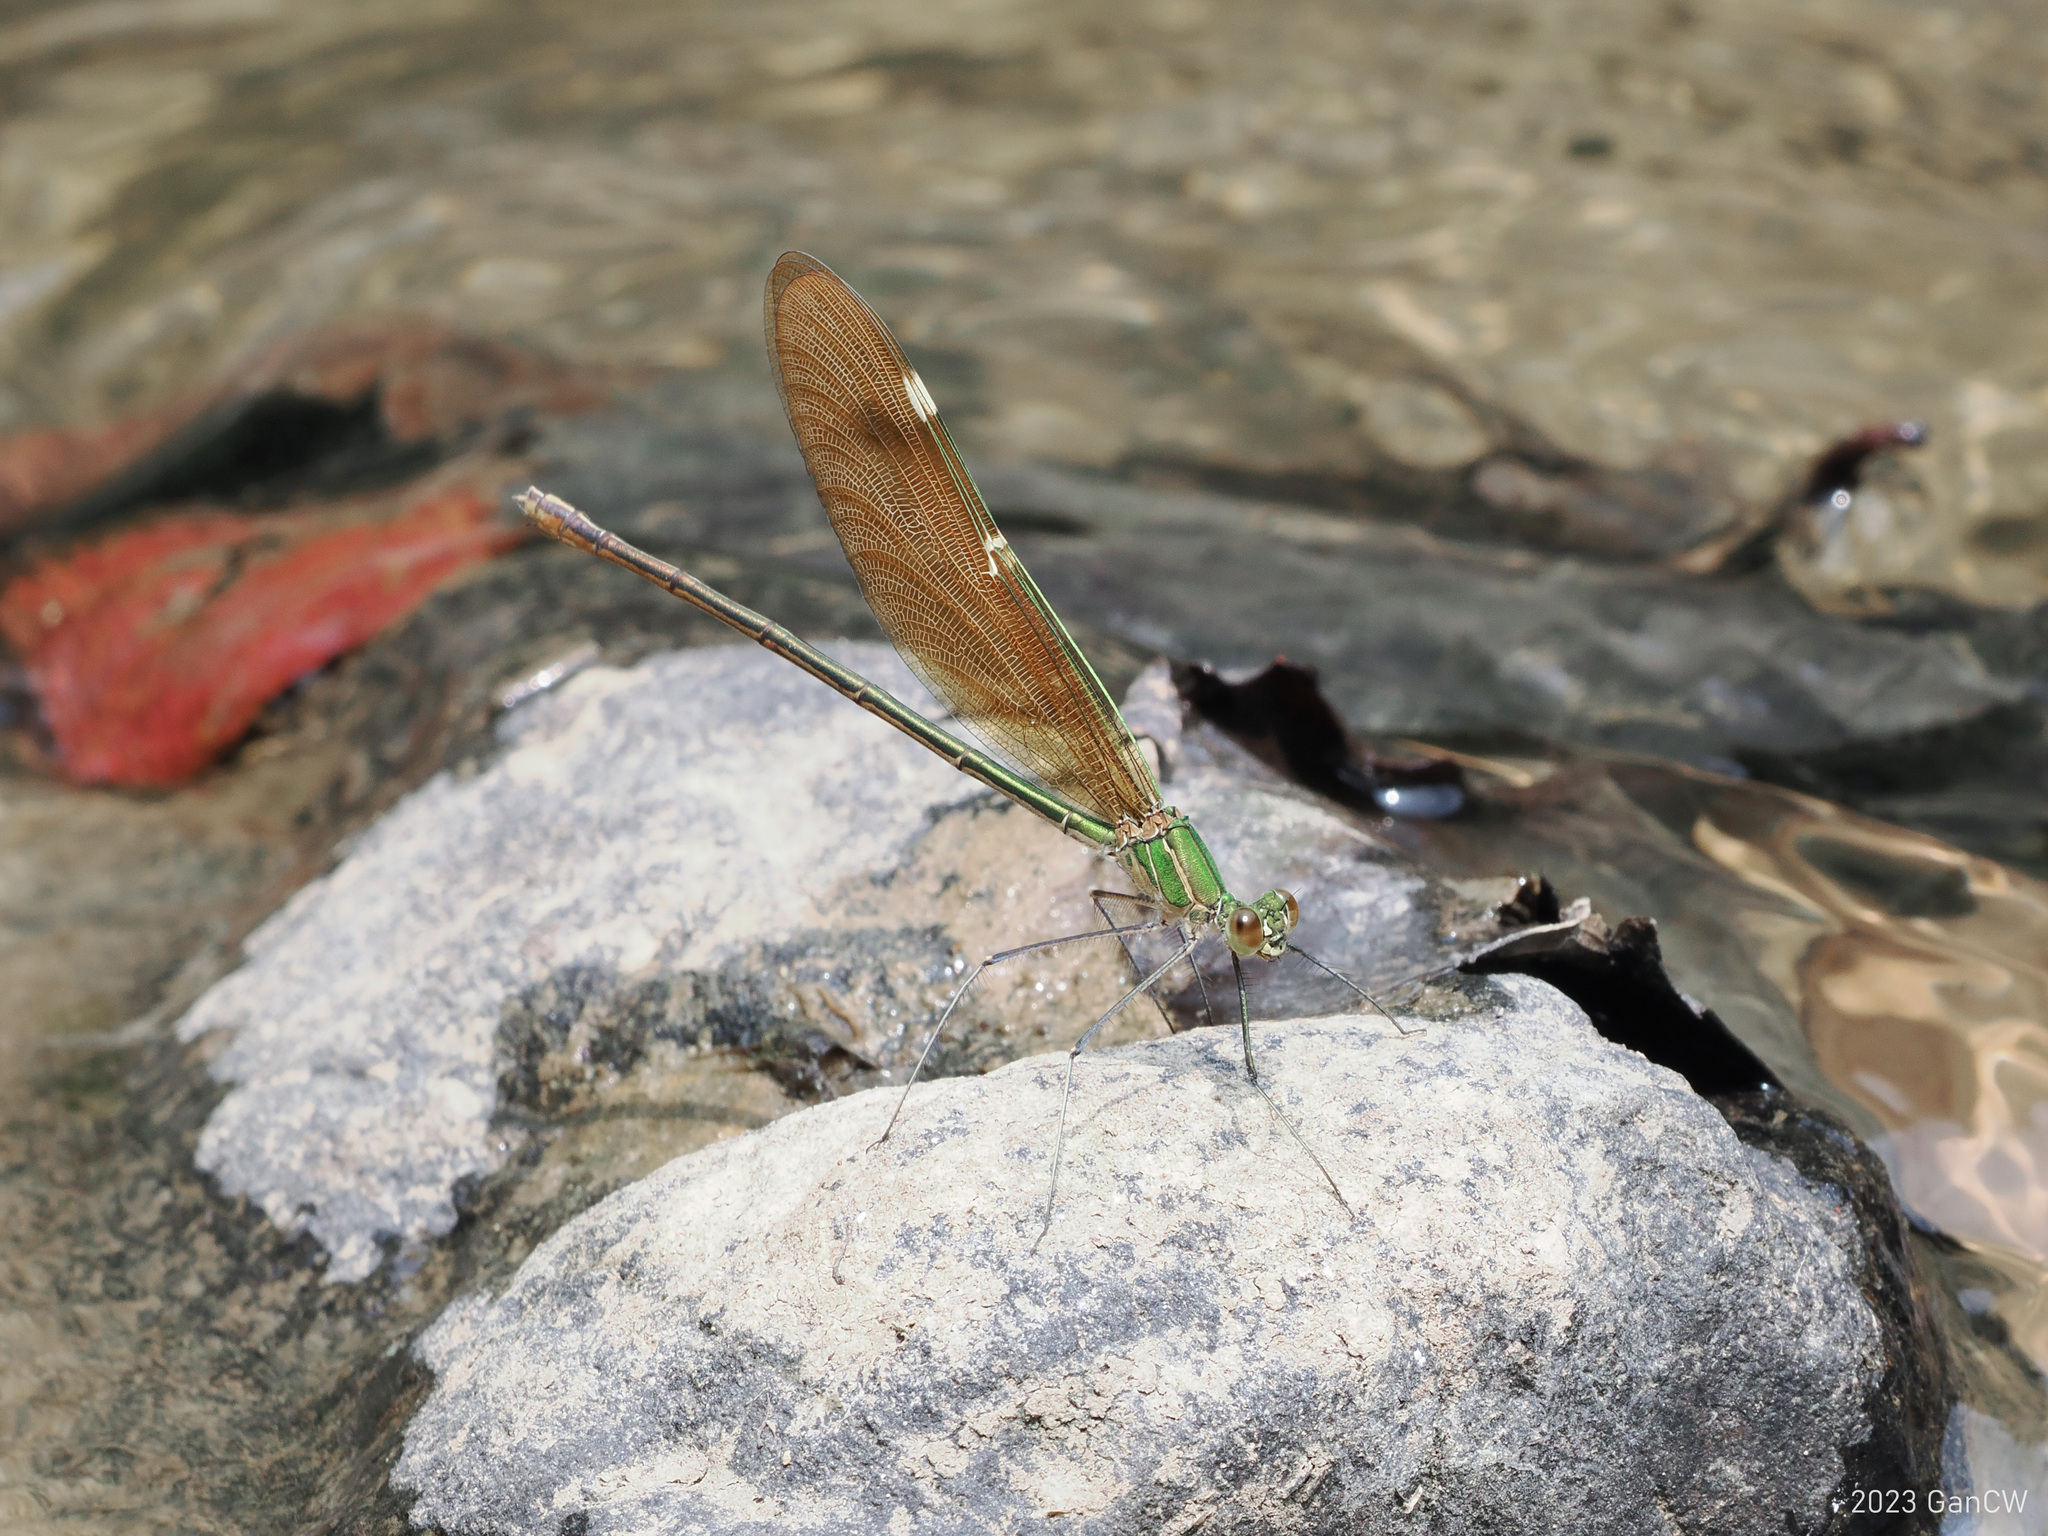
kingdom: Animalia
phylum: Arthropoda
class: Insecta
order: Odonata
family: Calopterygidae
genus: Neurobasis
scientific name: Neurobasis chinensis
